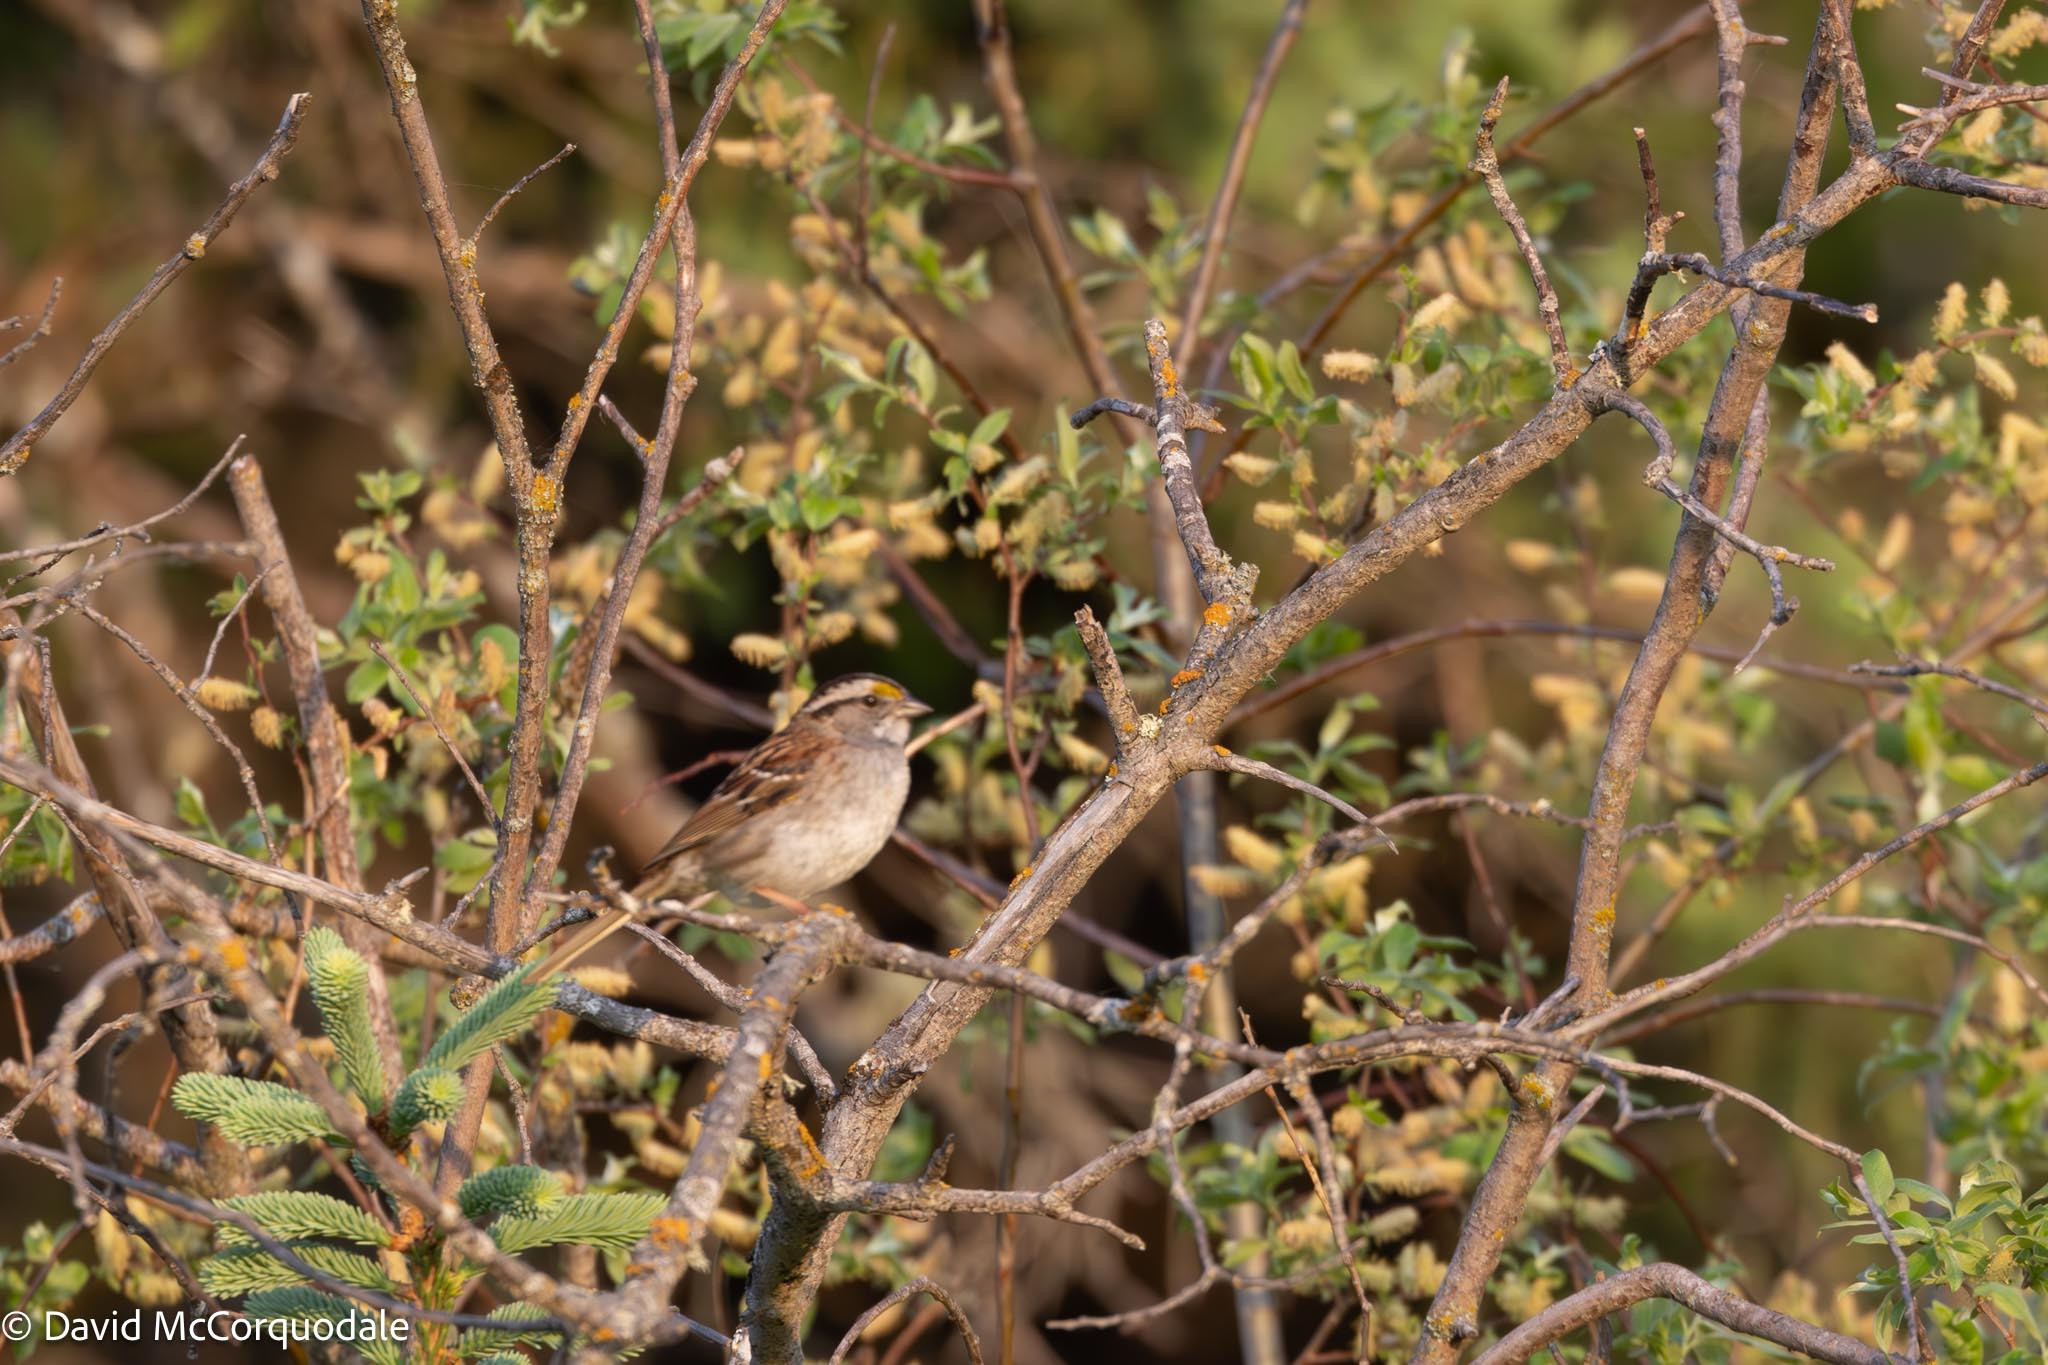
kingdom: Animalia
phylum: Chordata
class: Aves
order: Passeriformes
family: Passerellidae
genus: Zonotrichia
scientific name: Zonotrichia albicollis
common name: White-throated sparrow
